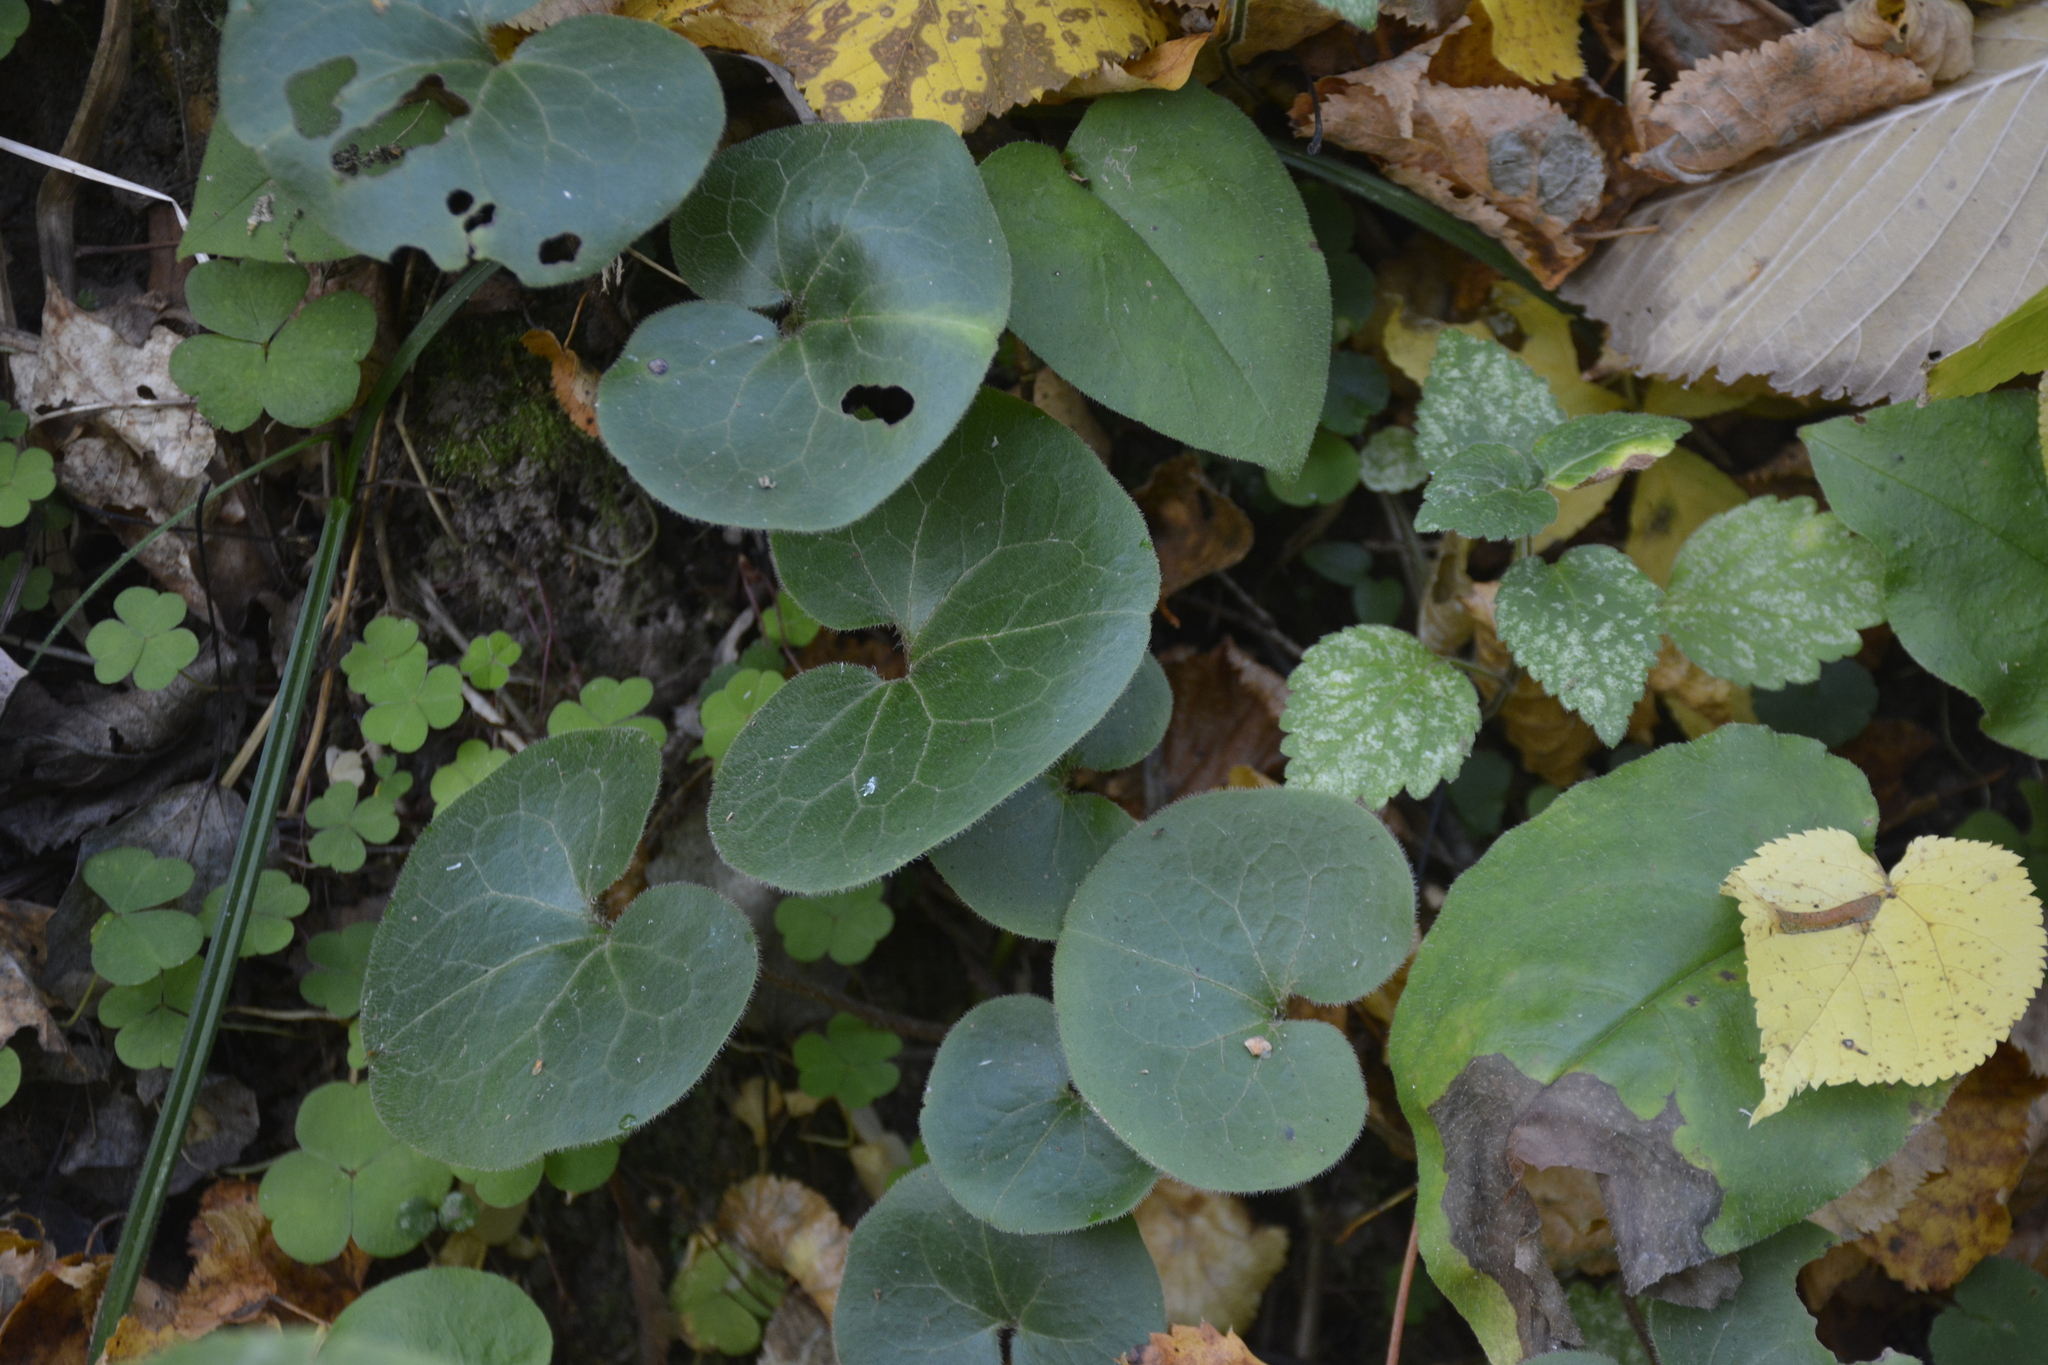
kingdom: Plantae
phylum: Tracheophyta
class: Magnoliopsida
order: Piperales
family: Aristolochiaceae
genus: Asarum
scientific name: Asarum europaeum
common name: Asarabacca
